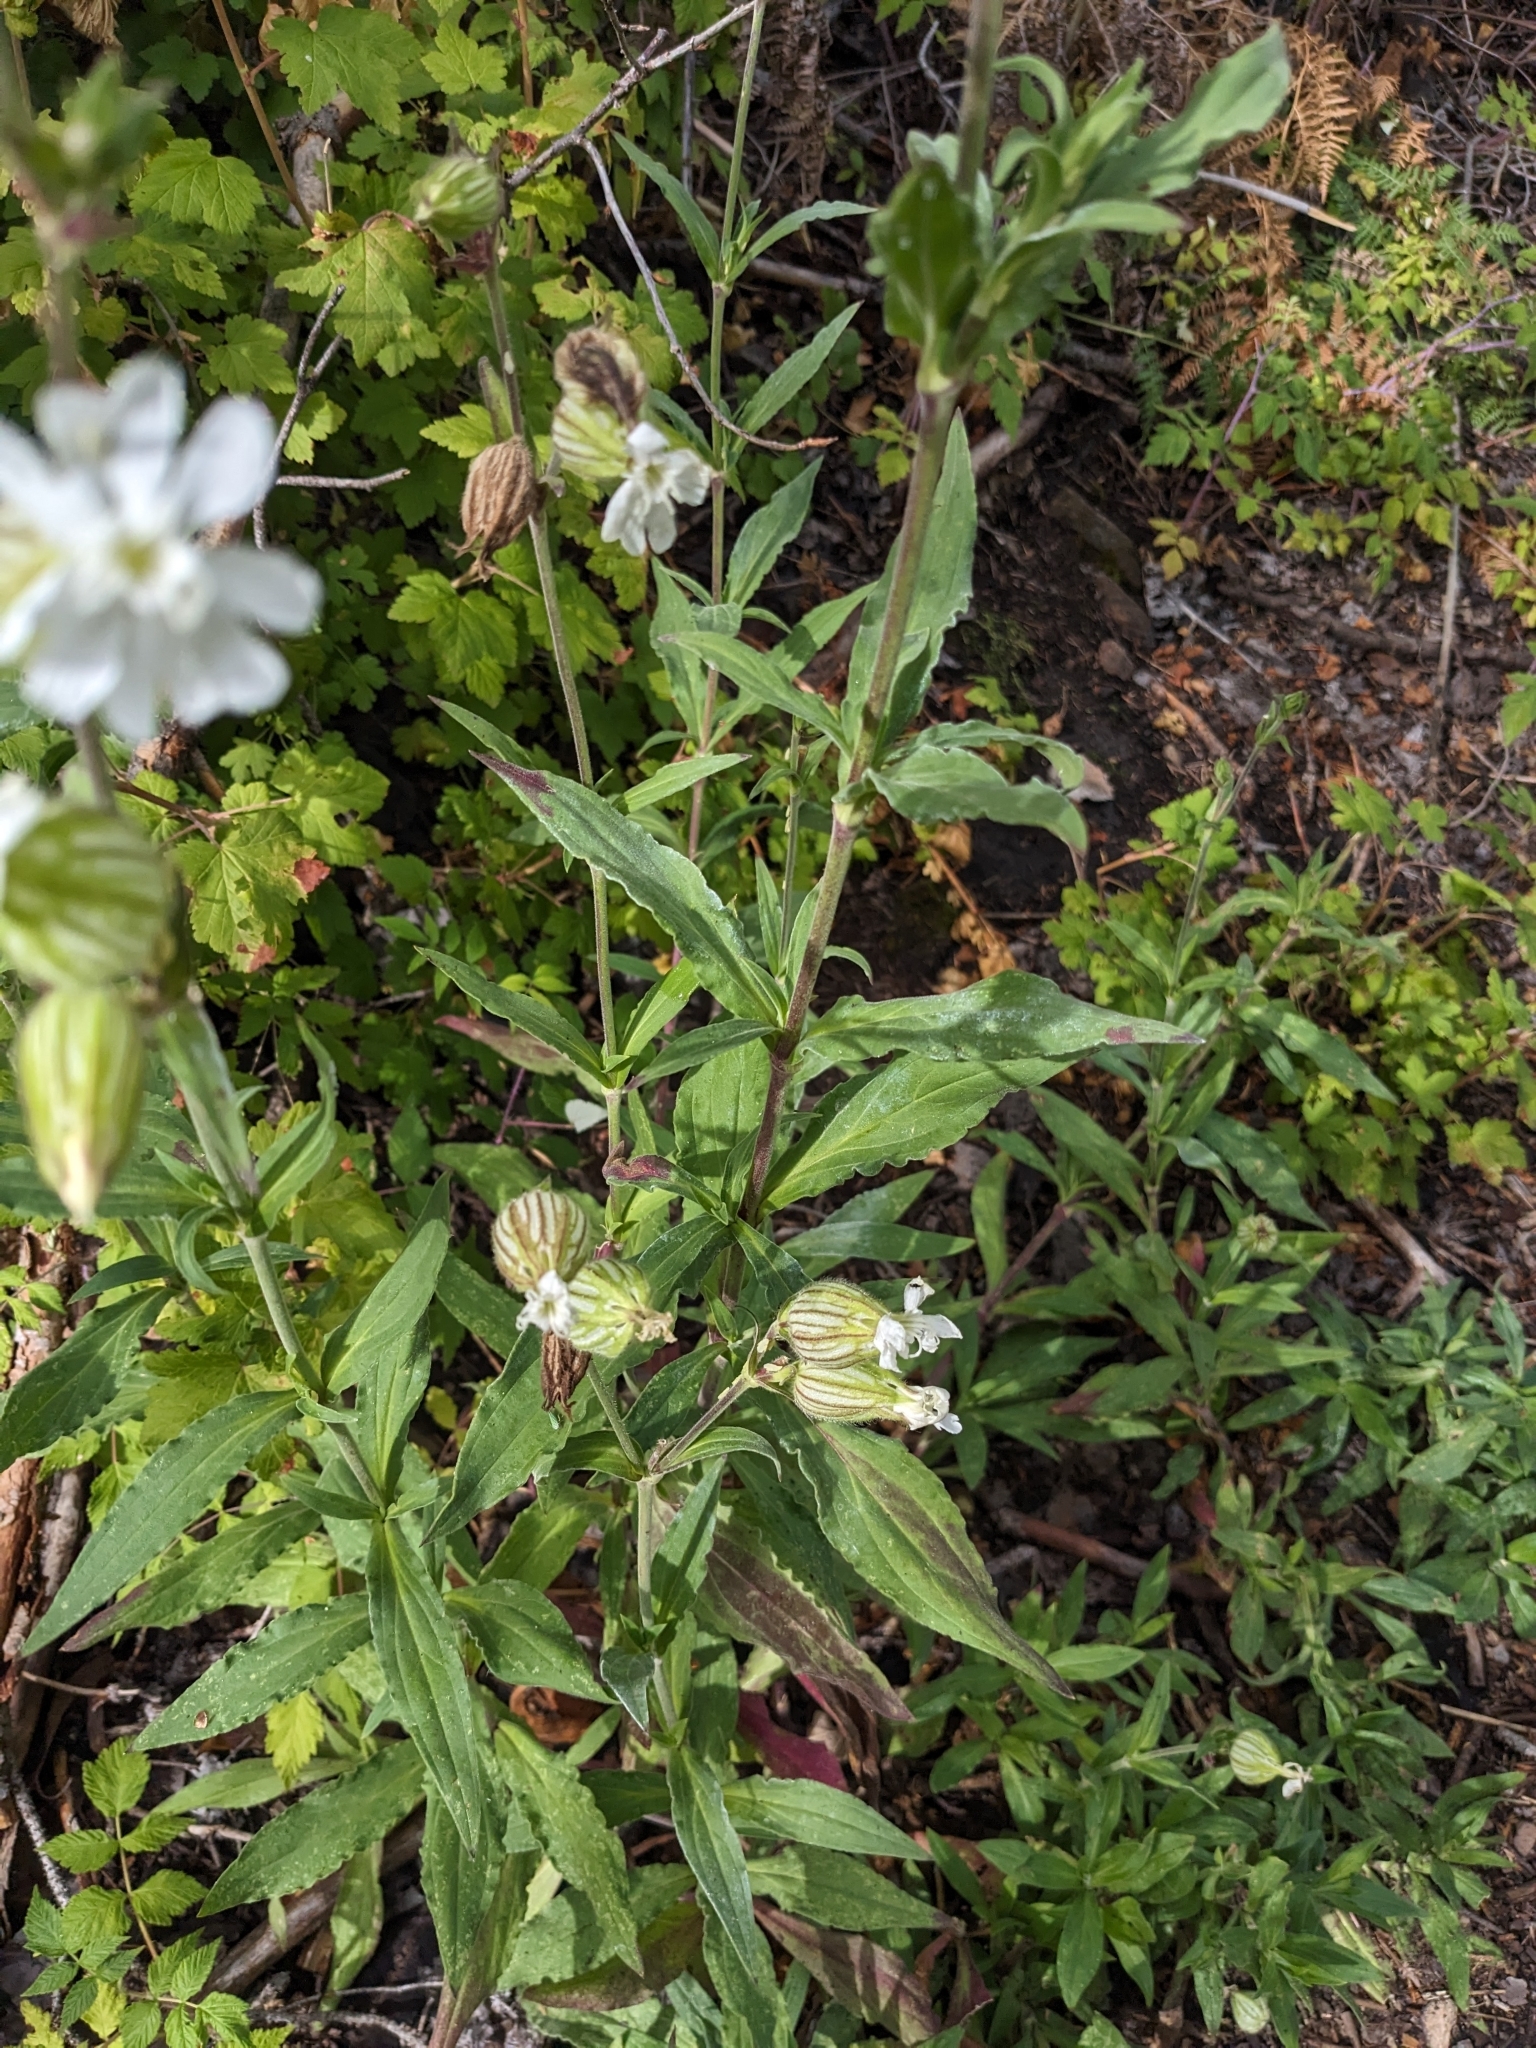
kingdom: Plantae
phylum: Tracheophyta
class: Magnoliopsida
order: Caryophyllales
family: Caryophyllaceae
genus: Silene
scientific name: Silene latifolia
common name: White campion
